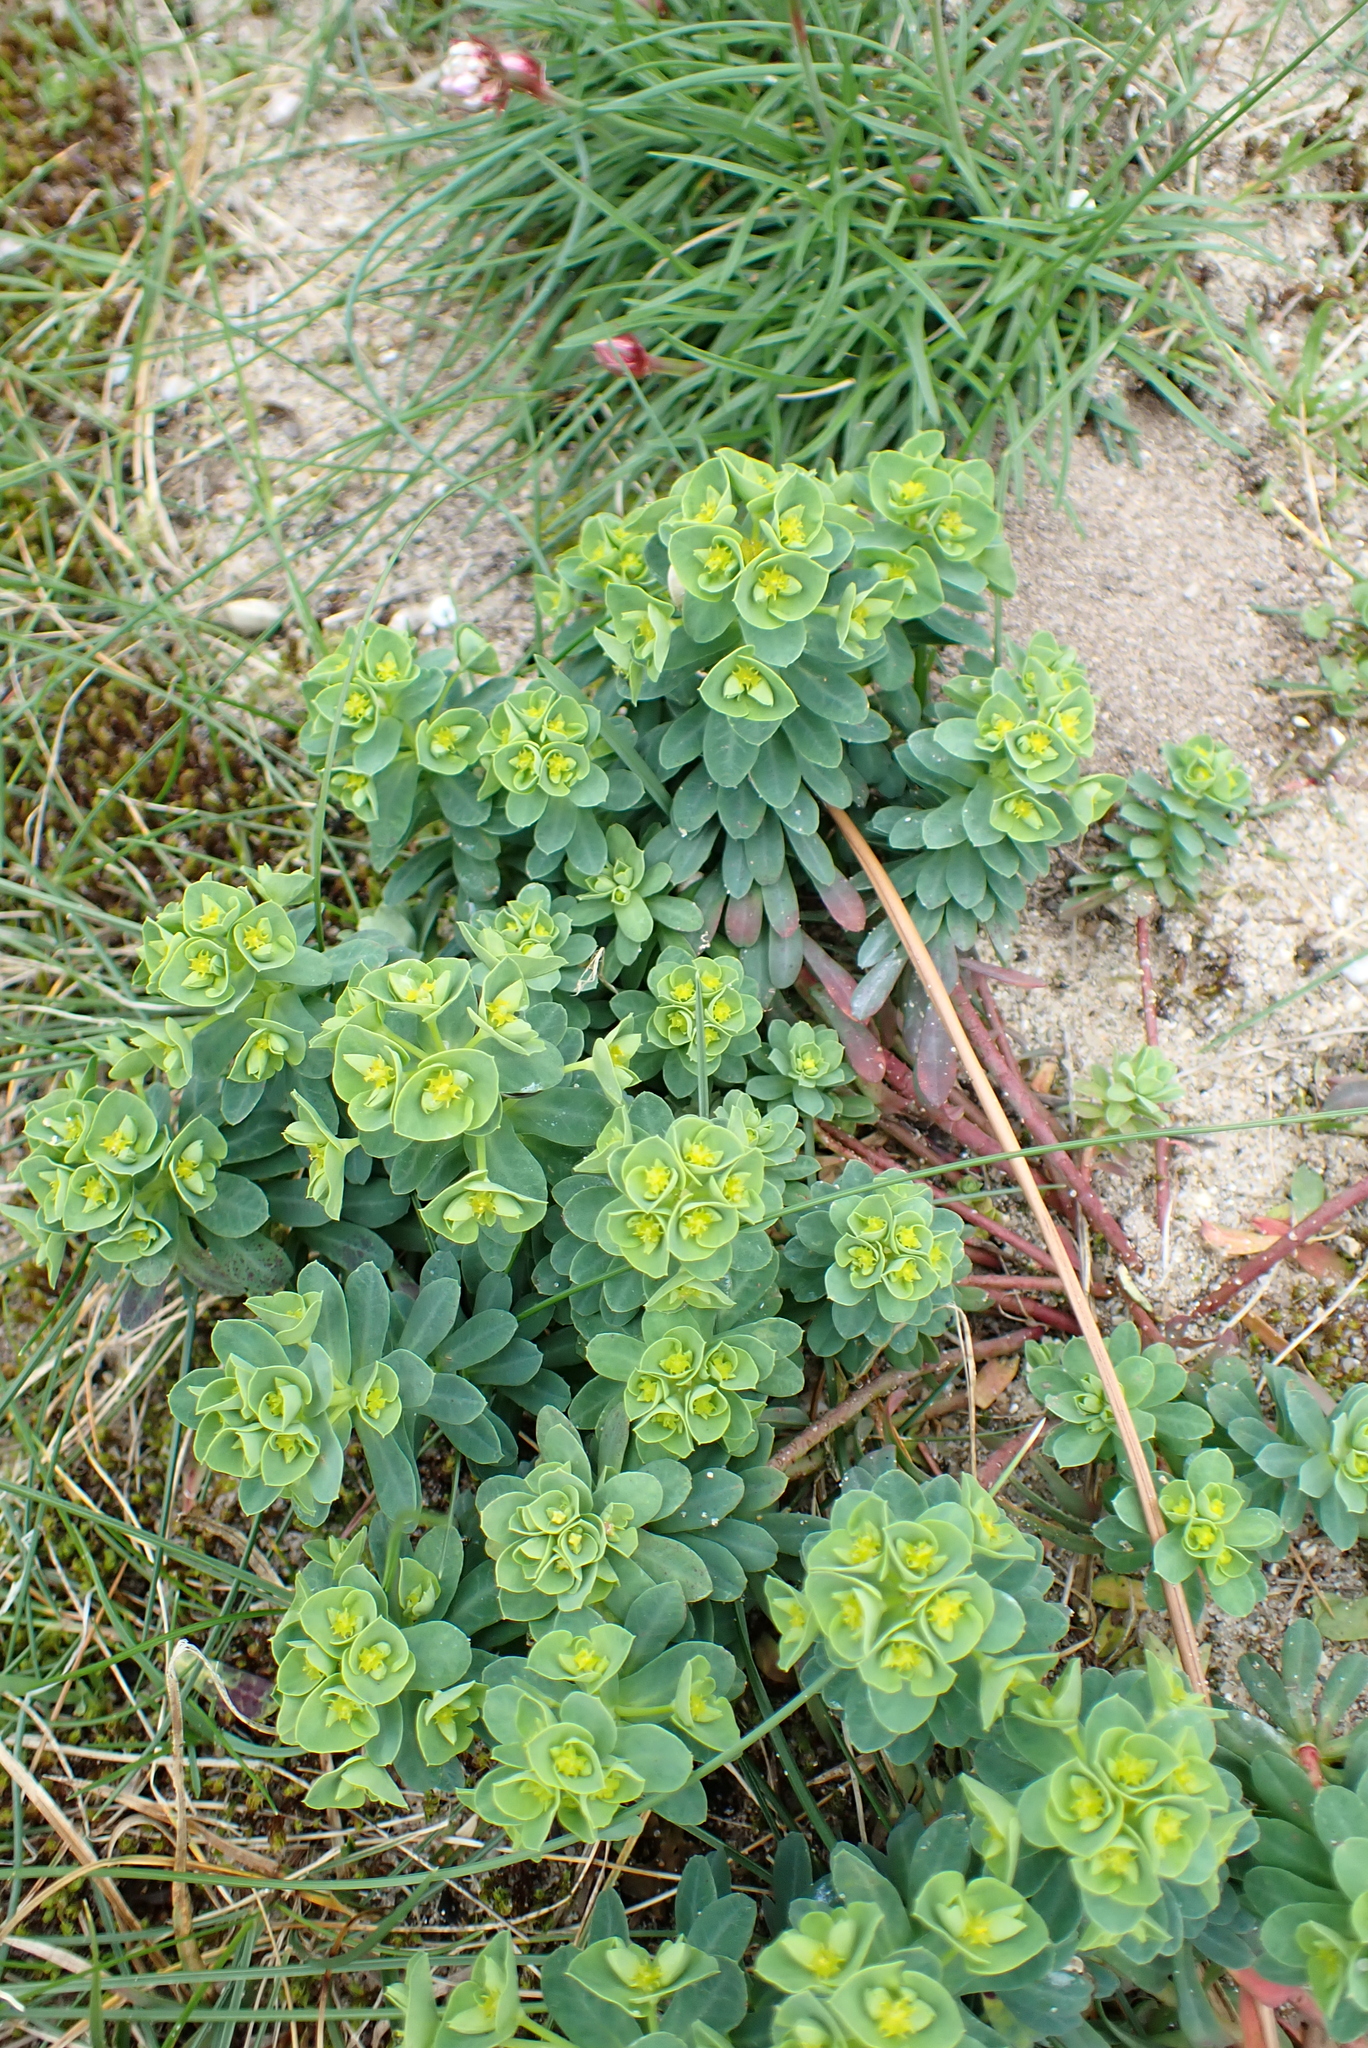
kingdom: Plantae
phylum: Tracheophyta
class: Magnoliopsida
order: Malpighiales
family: Euphorbiaceae
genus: Euphorbia
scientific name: Euphorbia portlandica
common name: Portland spurge
